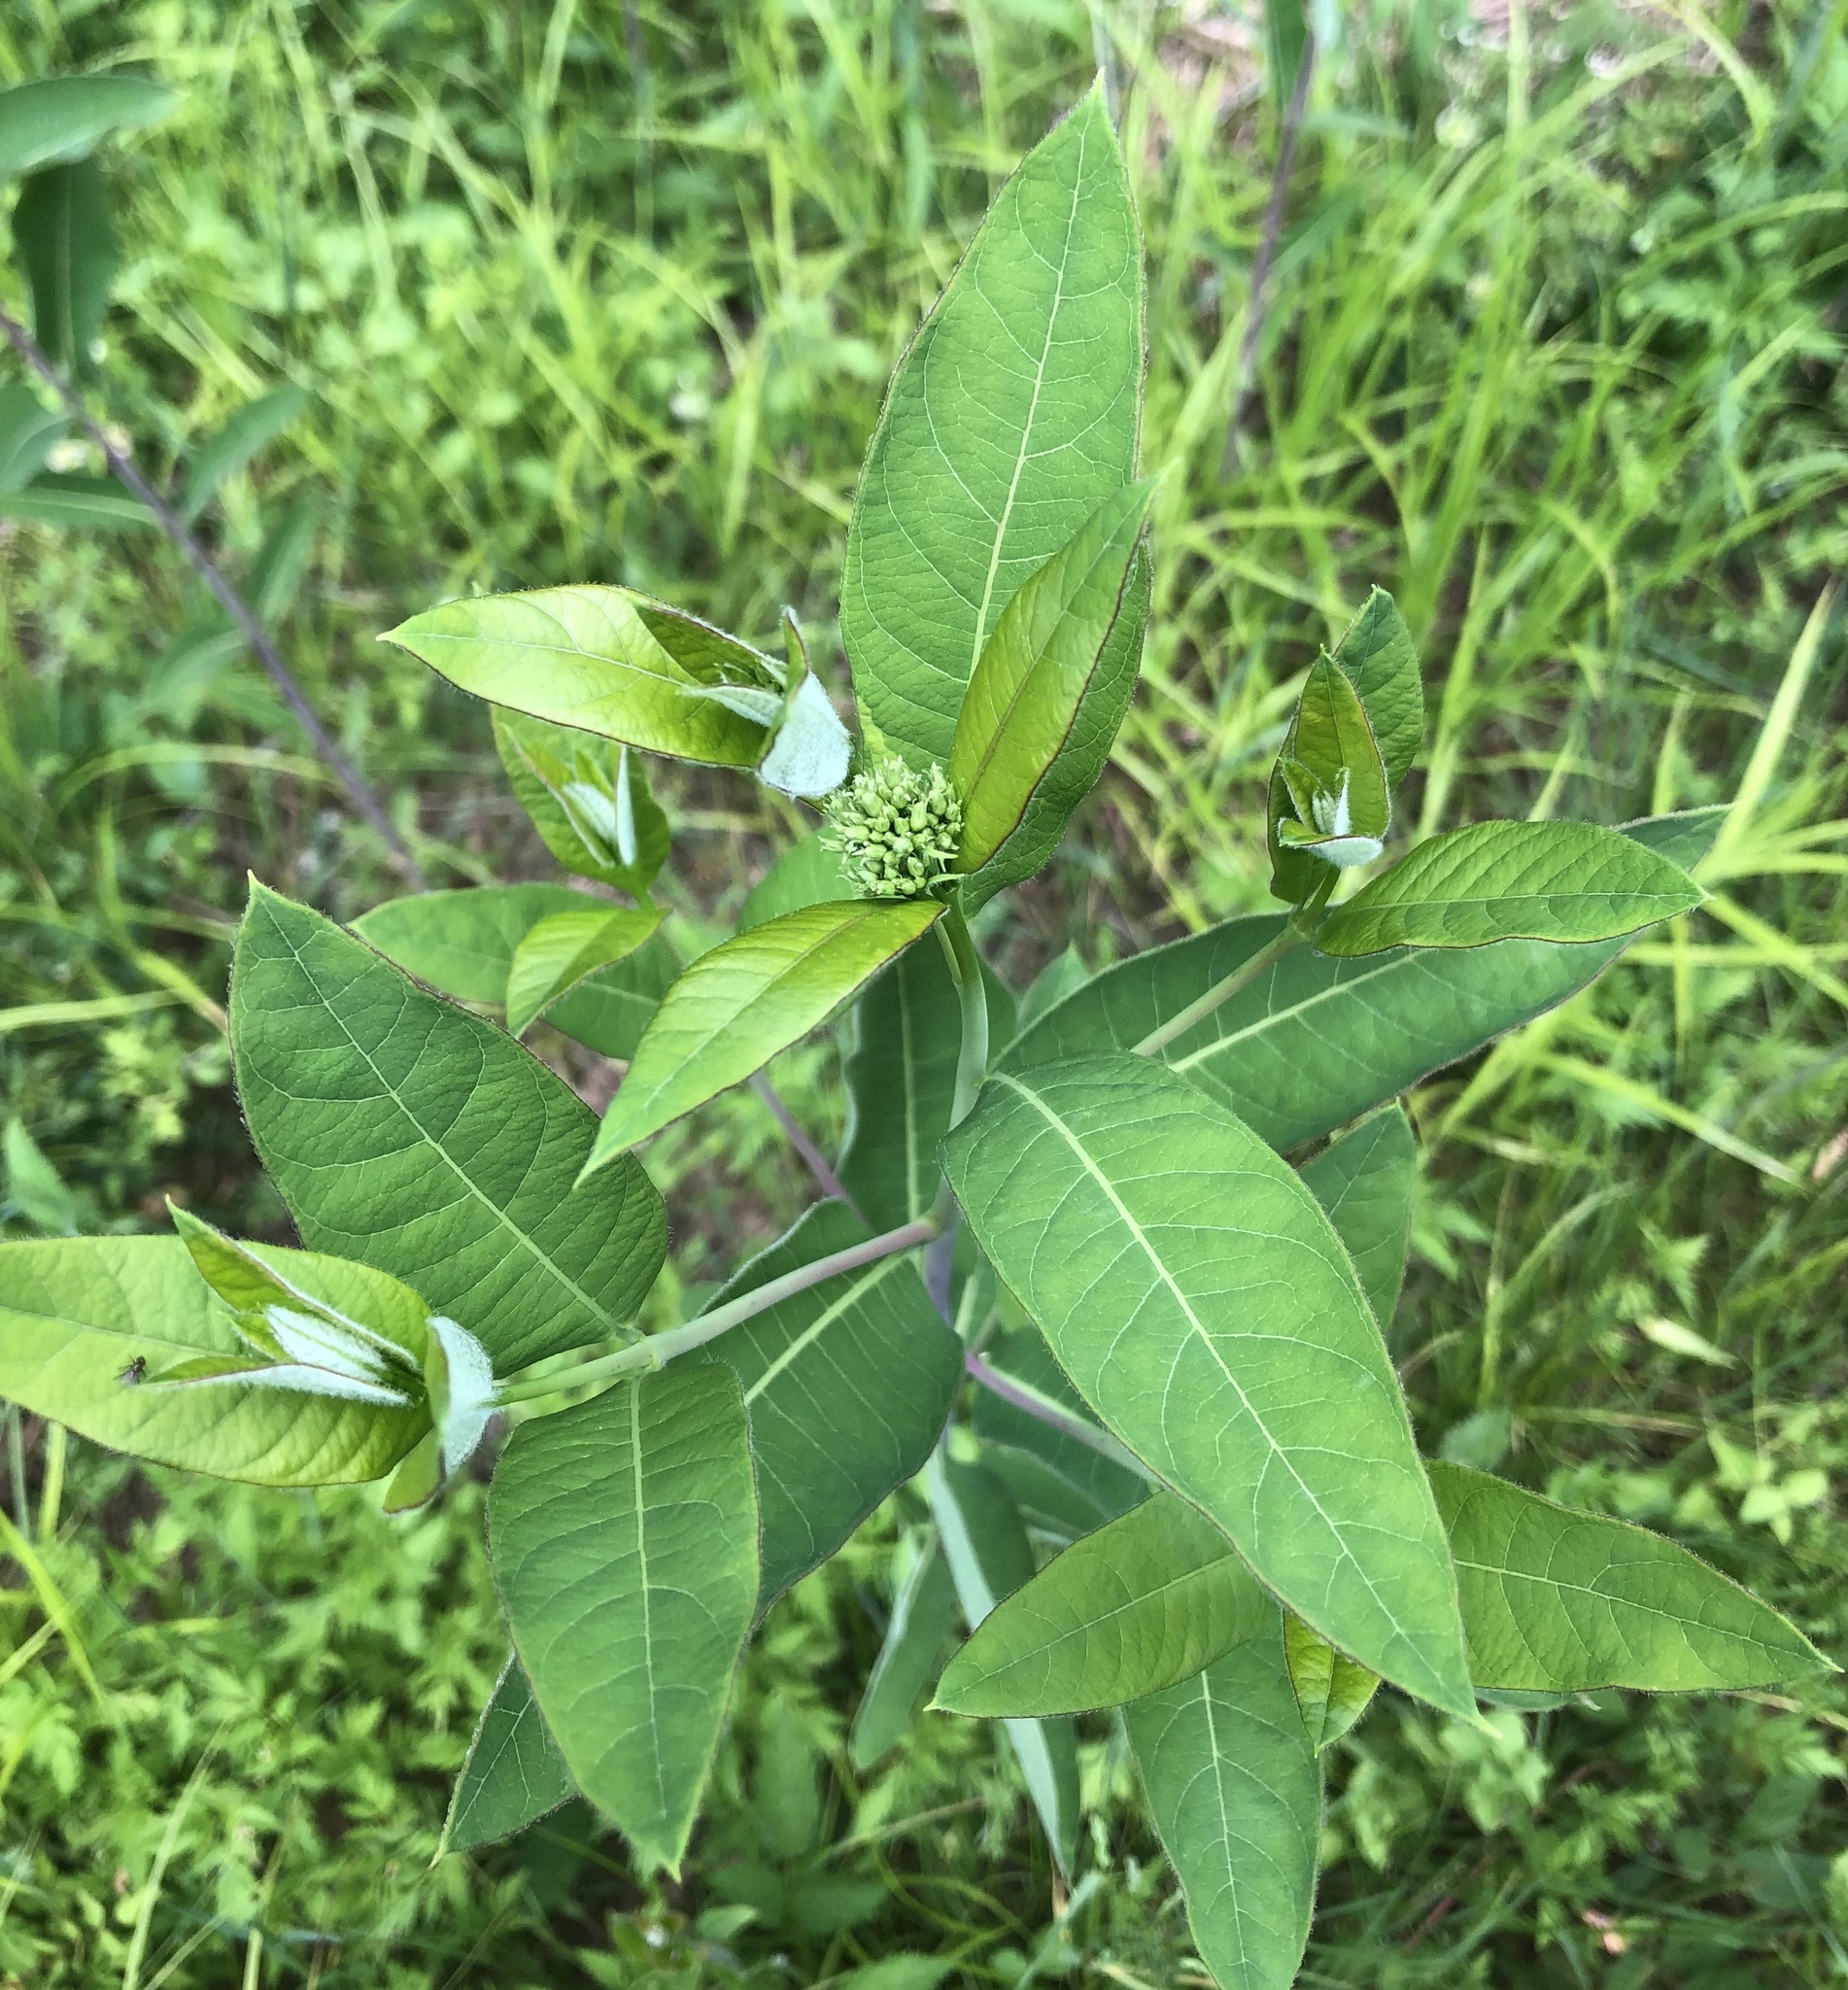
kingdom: Plantae
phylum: Tracheophyta
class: Magnoliopsida
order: Gentianales
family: Apocynaceae
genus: Apocynum
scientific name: Apocynum cannabinum
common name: Hemp dogbane
